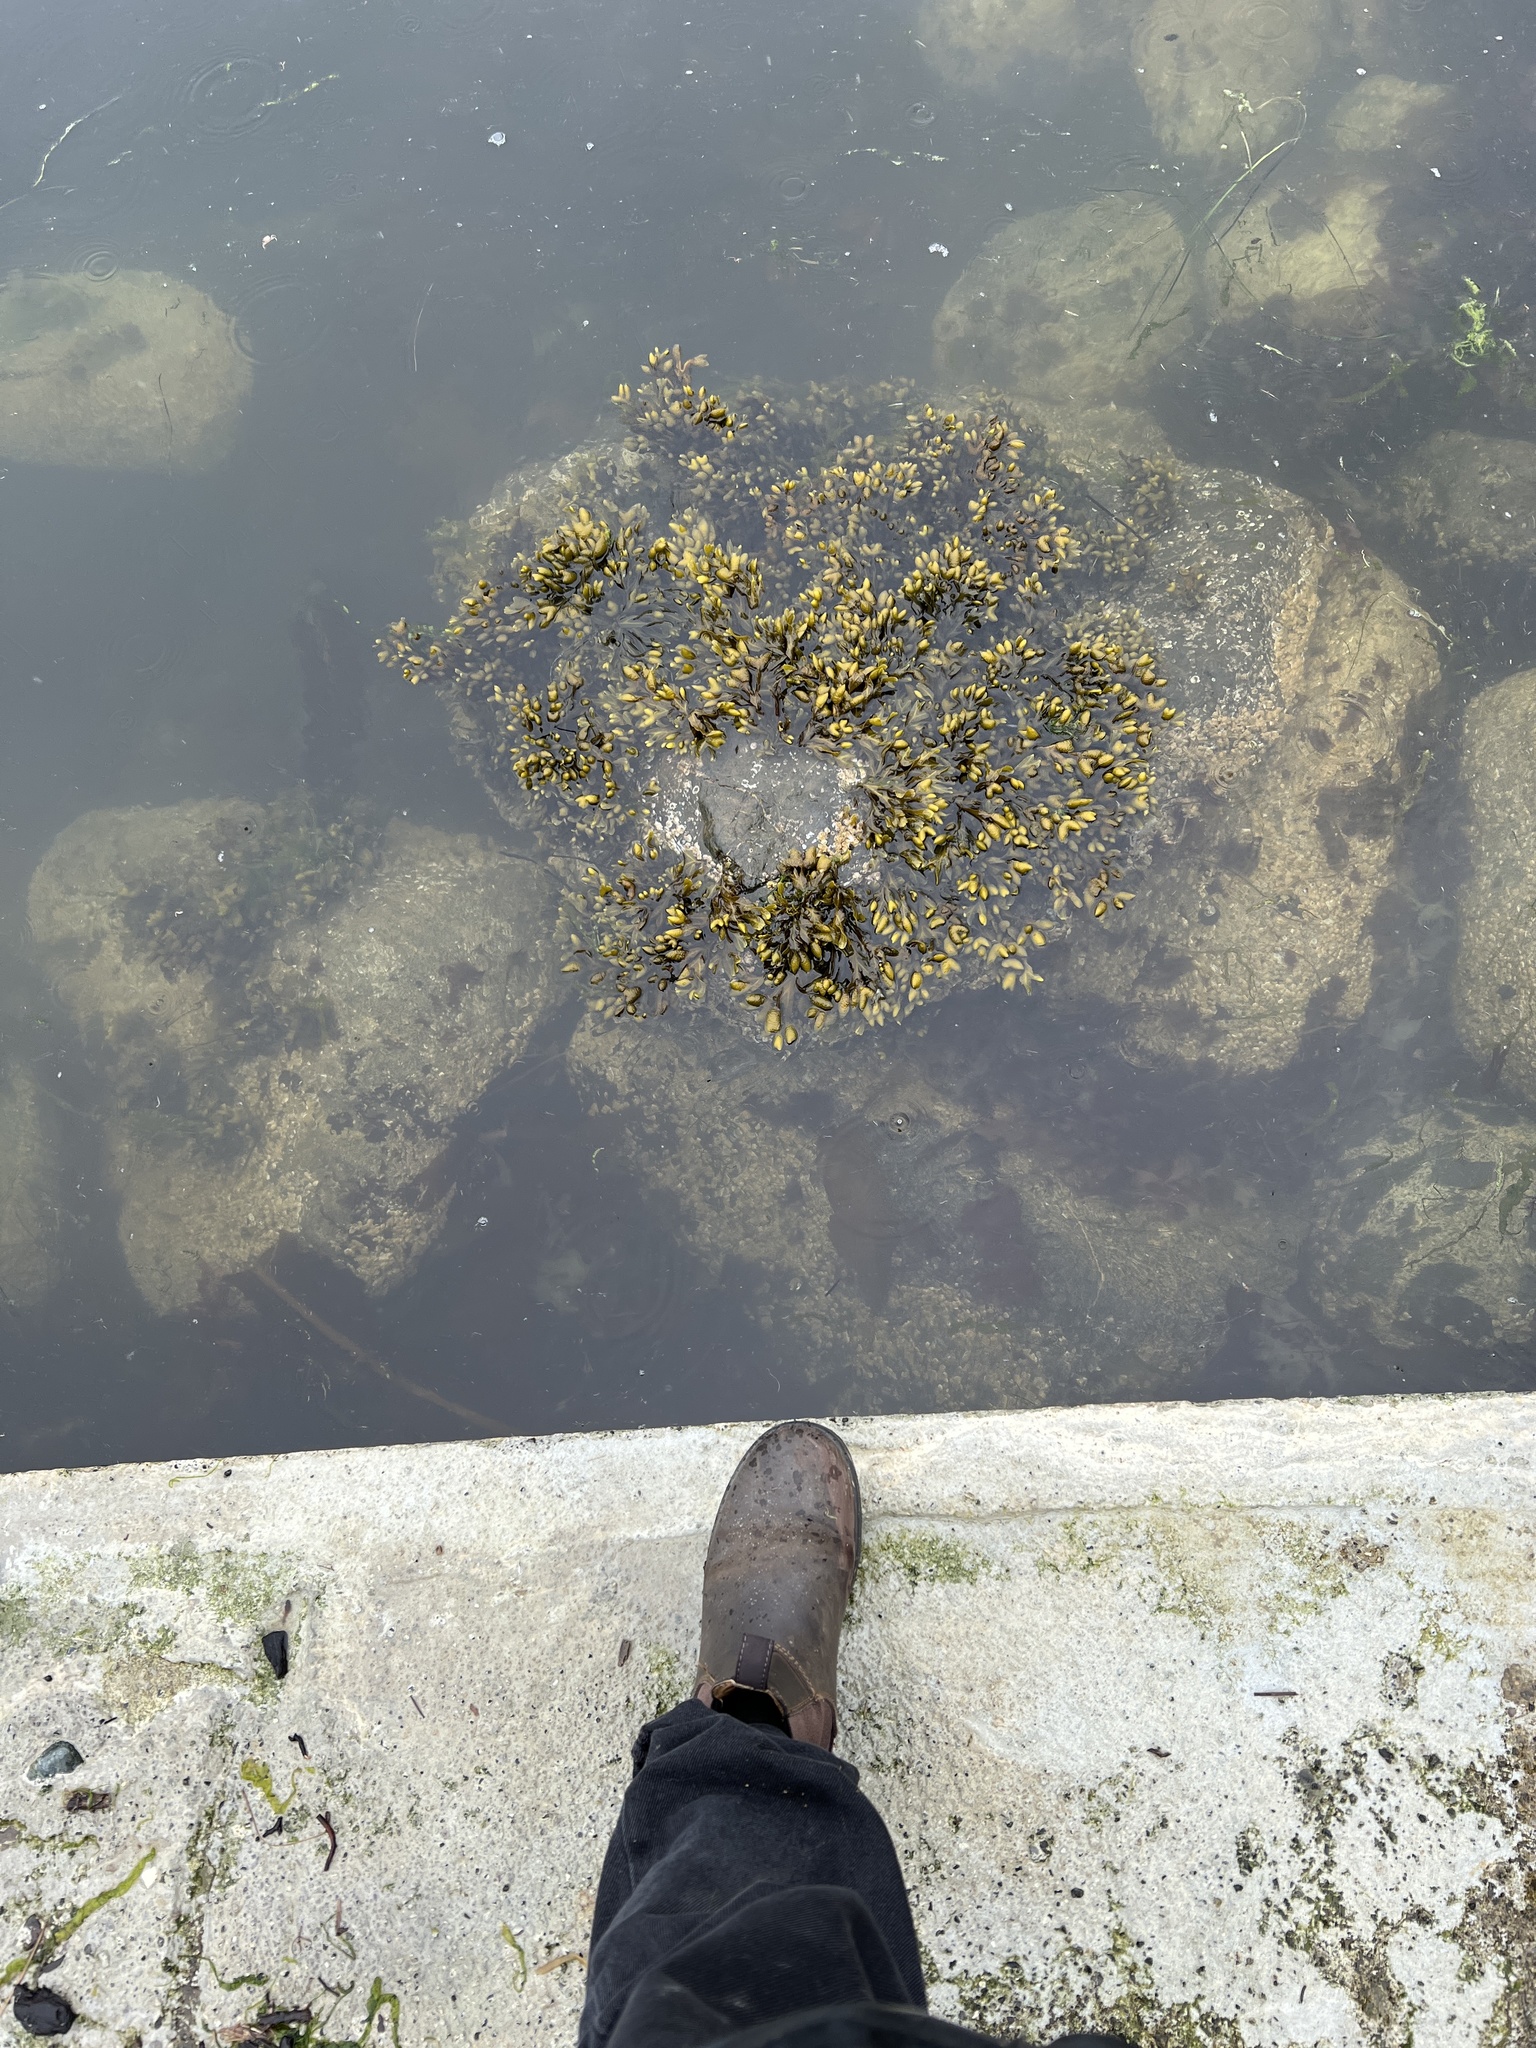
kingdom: Chromista
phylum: Ochrophyta
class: Phaeophyceae
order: Fucales
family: Fucaceae
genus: Fucus
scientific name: Fucus distichus
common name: Rockweed
